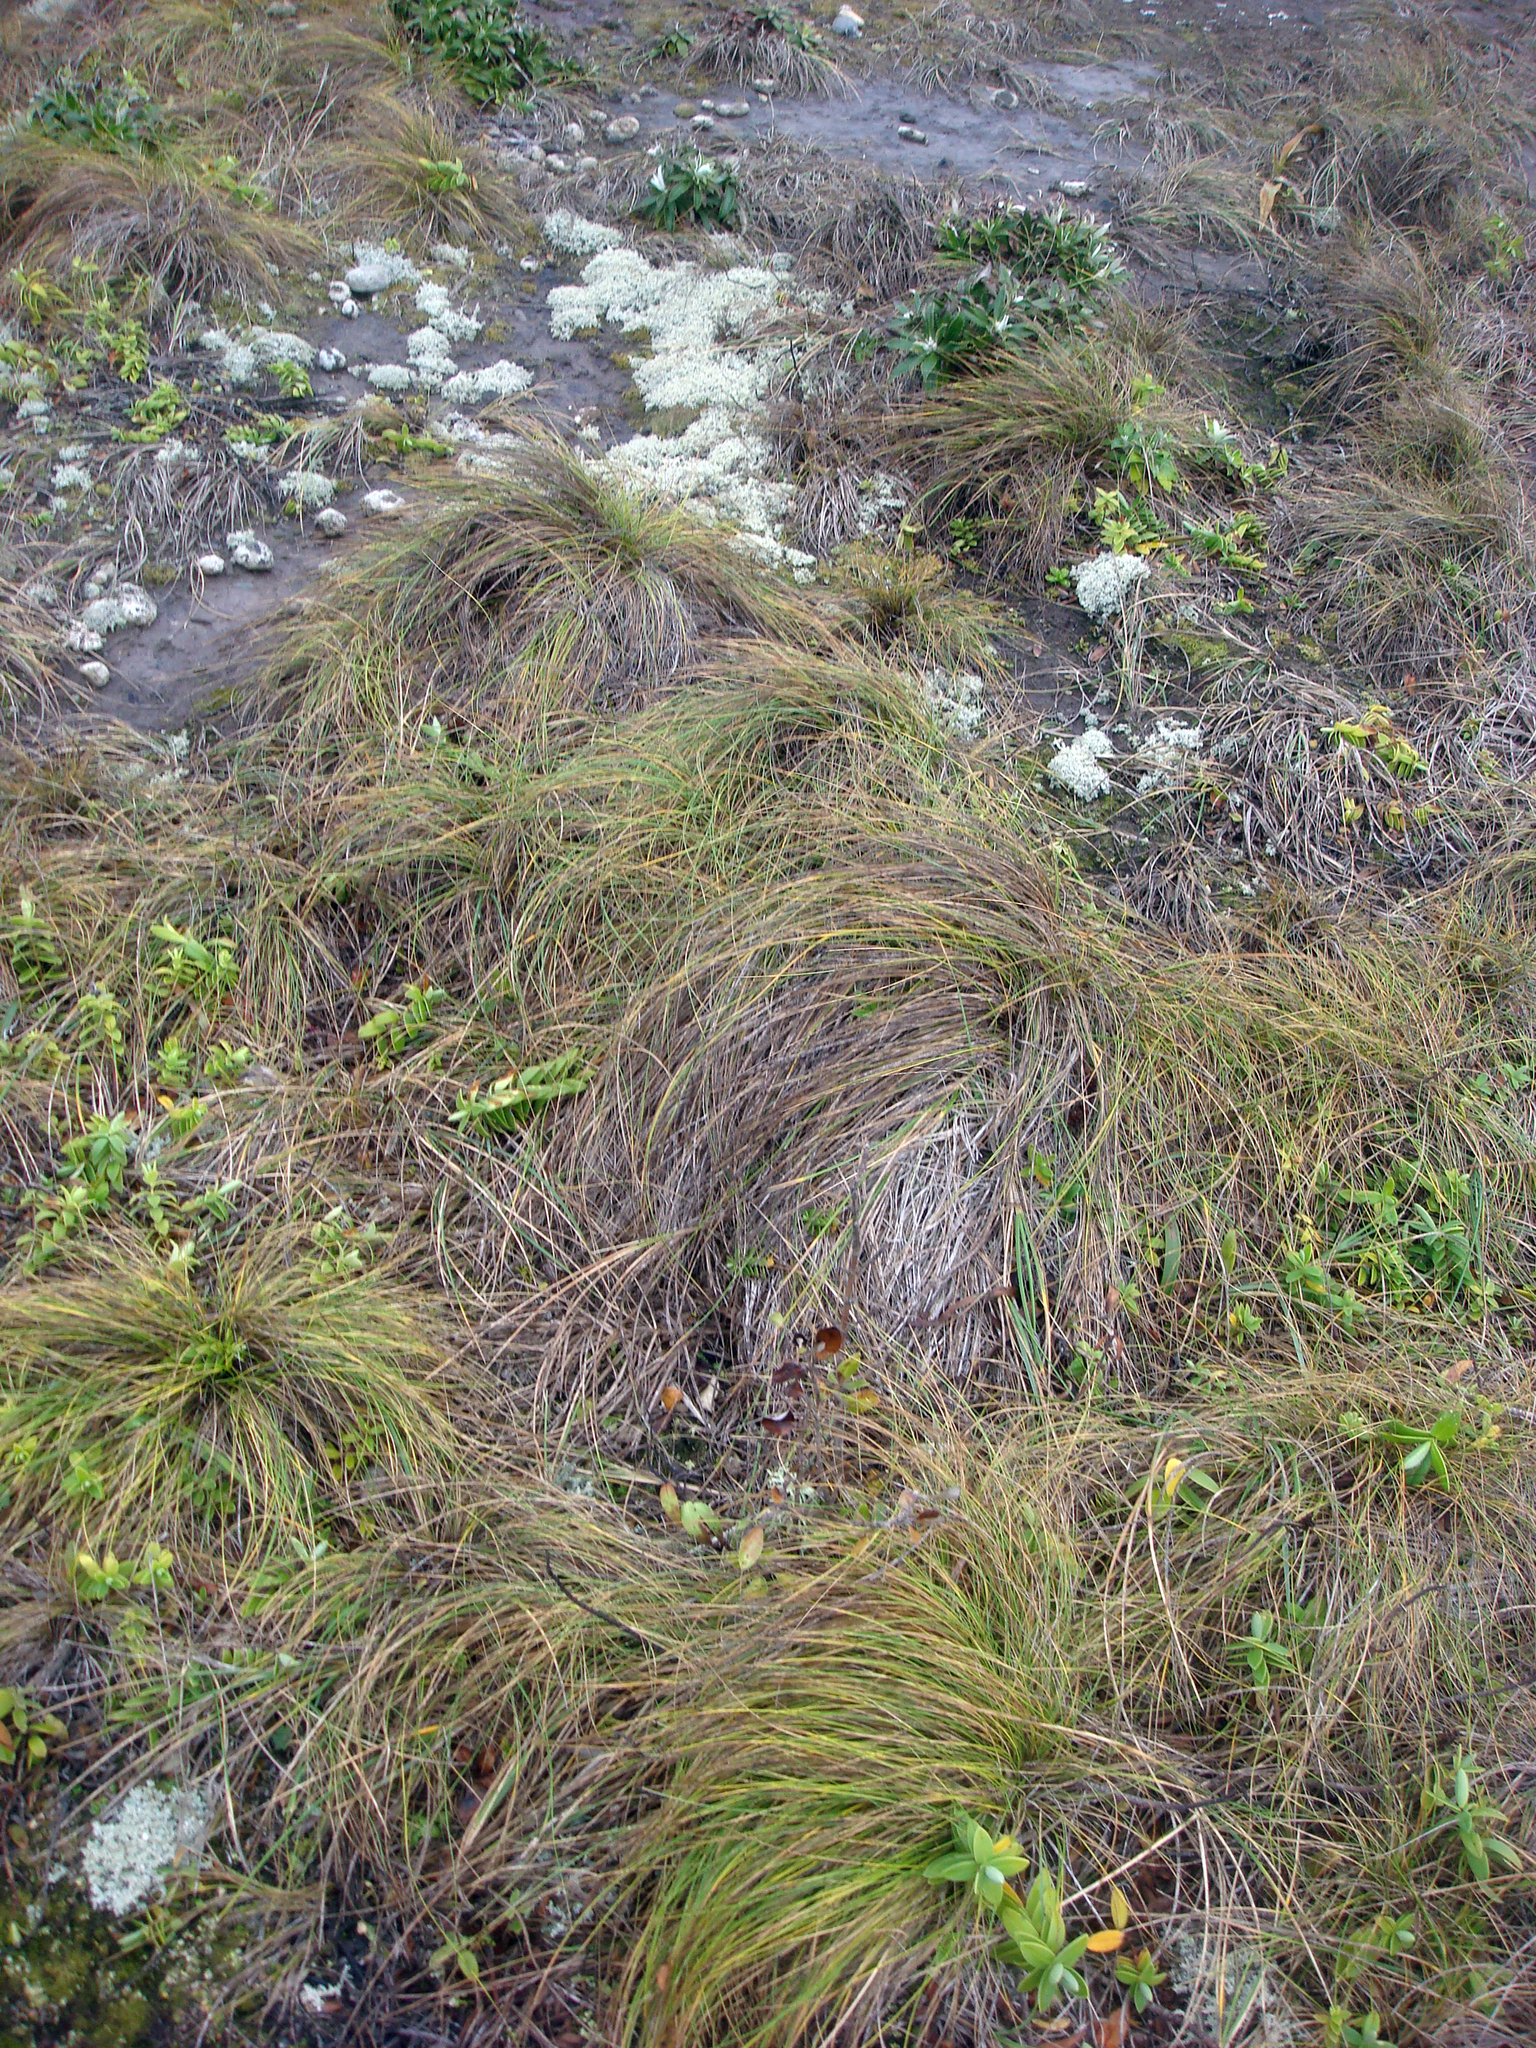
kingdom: Plantae
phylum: Tracheophyta
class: Liliopsida
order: Poales
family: Poaceae
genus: Festuca
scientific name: Festuca coxii
